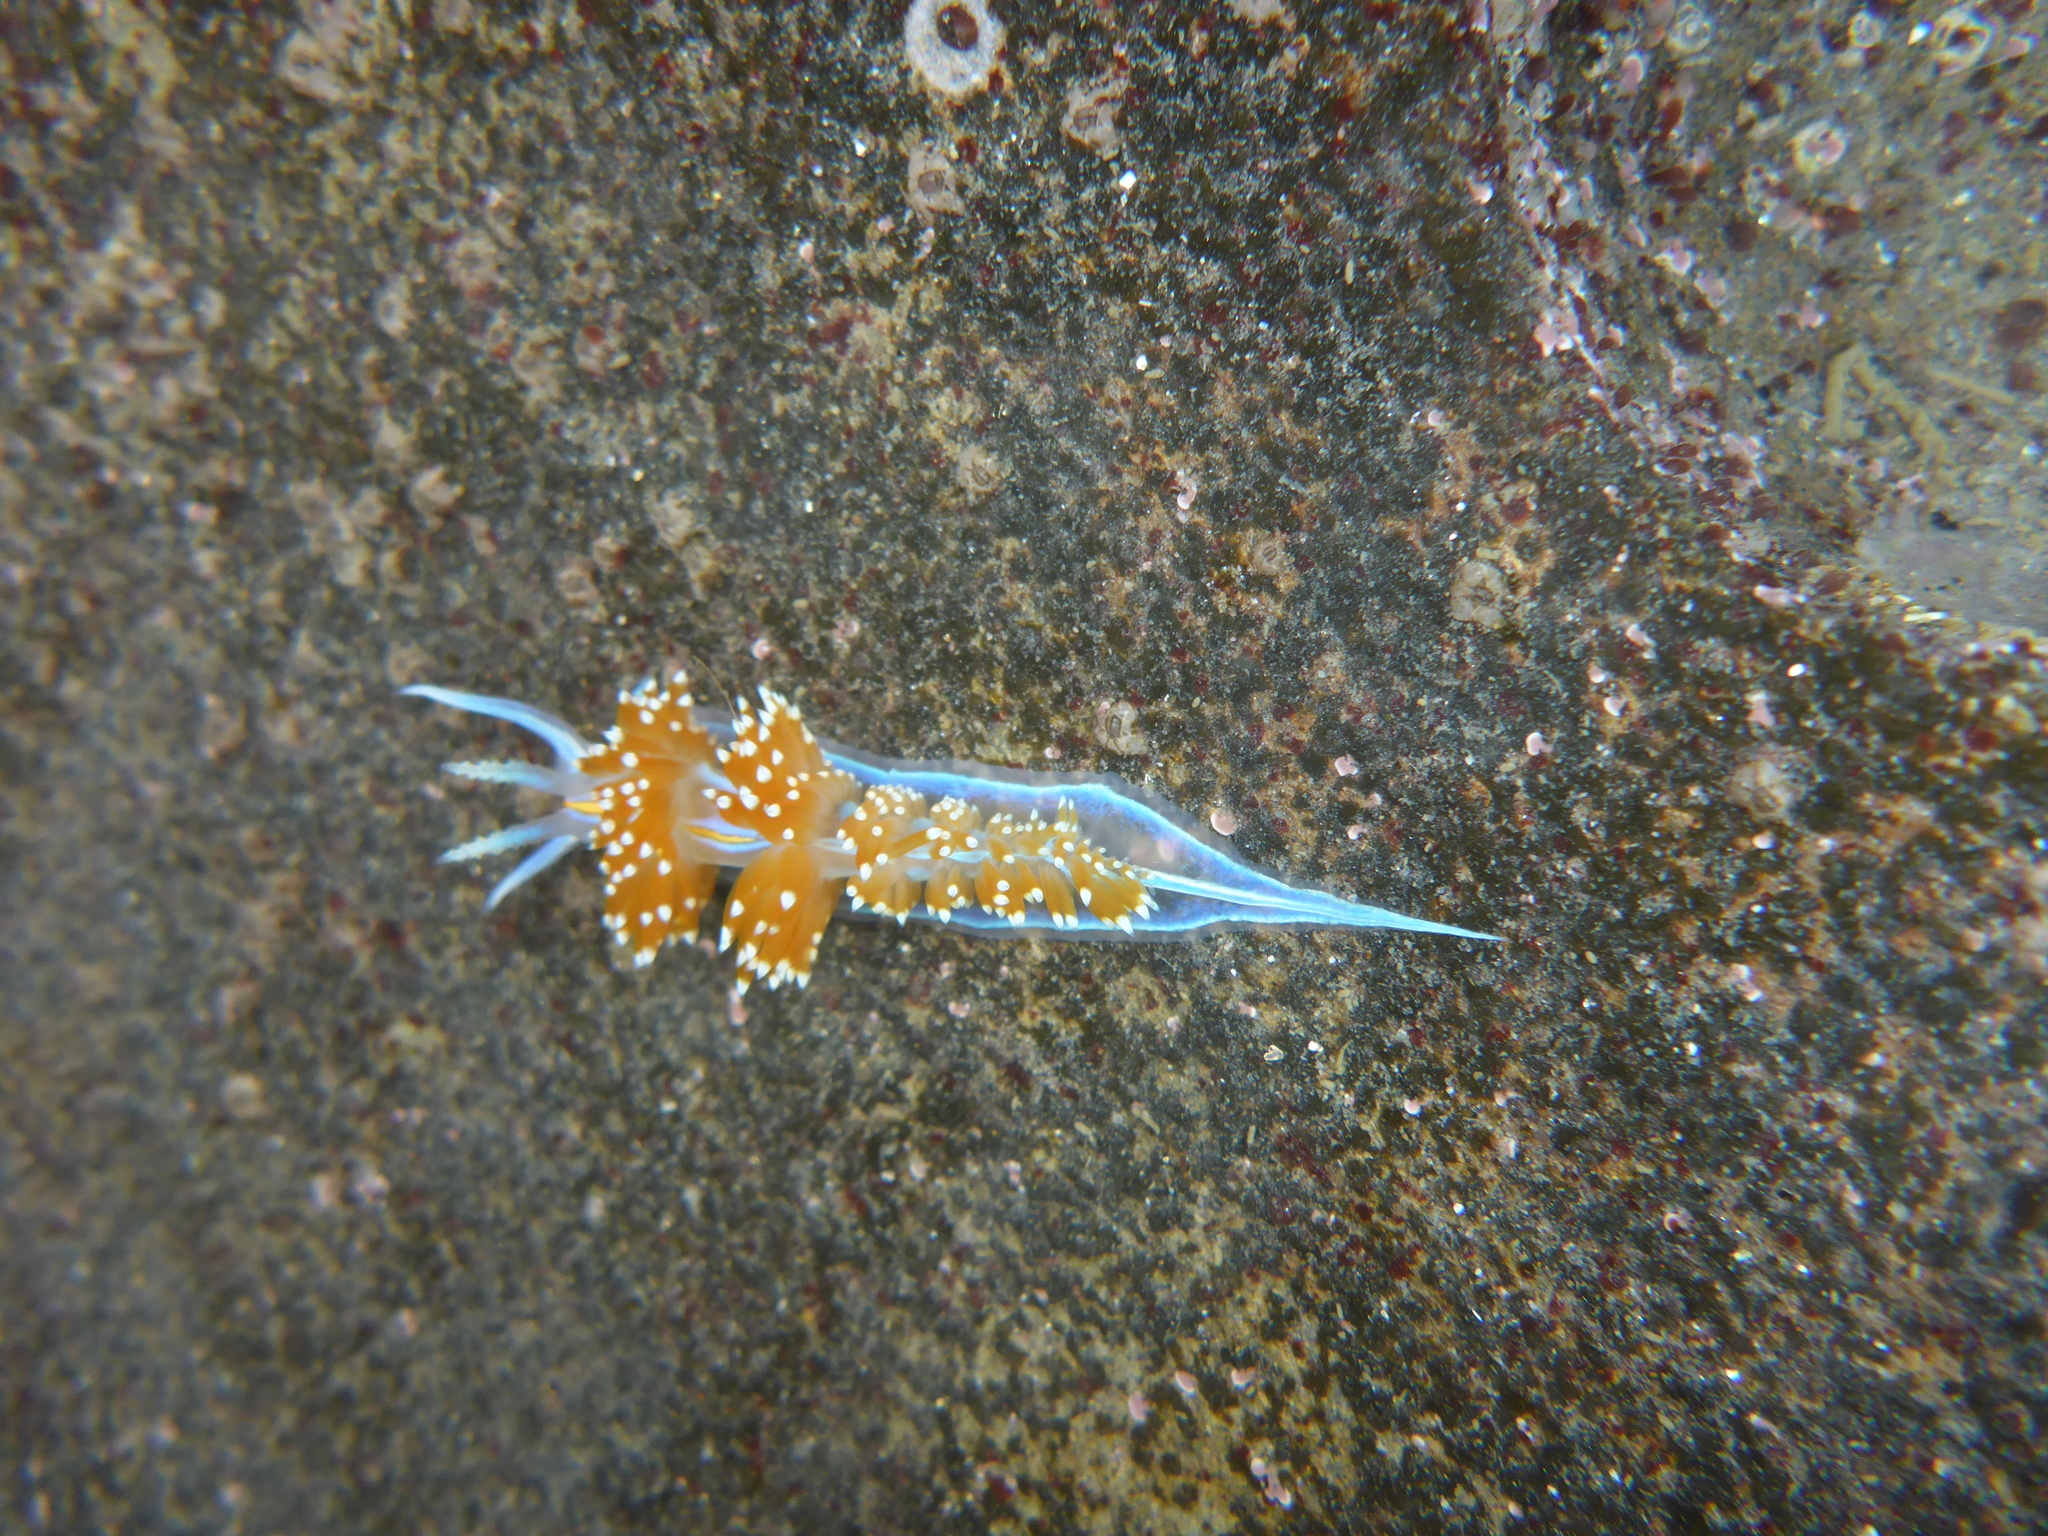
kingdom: Animalia
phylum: Mollusca
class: Gastropoda
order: Nudibranchia
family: Myrrhinidae
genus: Hermissenda
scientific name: Hermissenda opalescens
